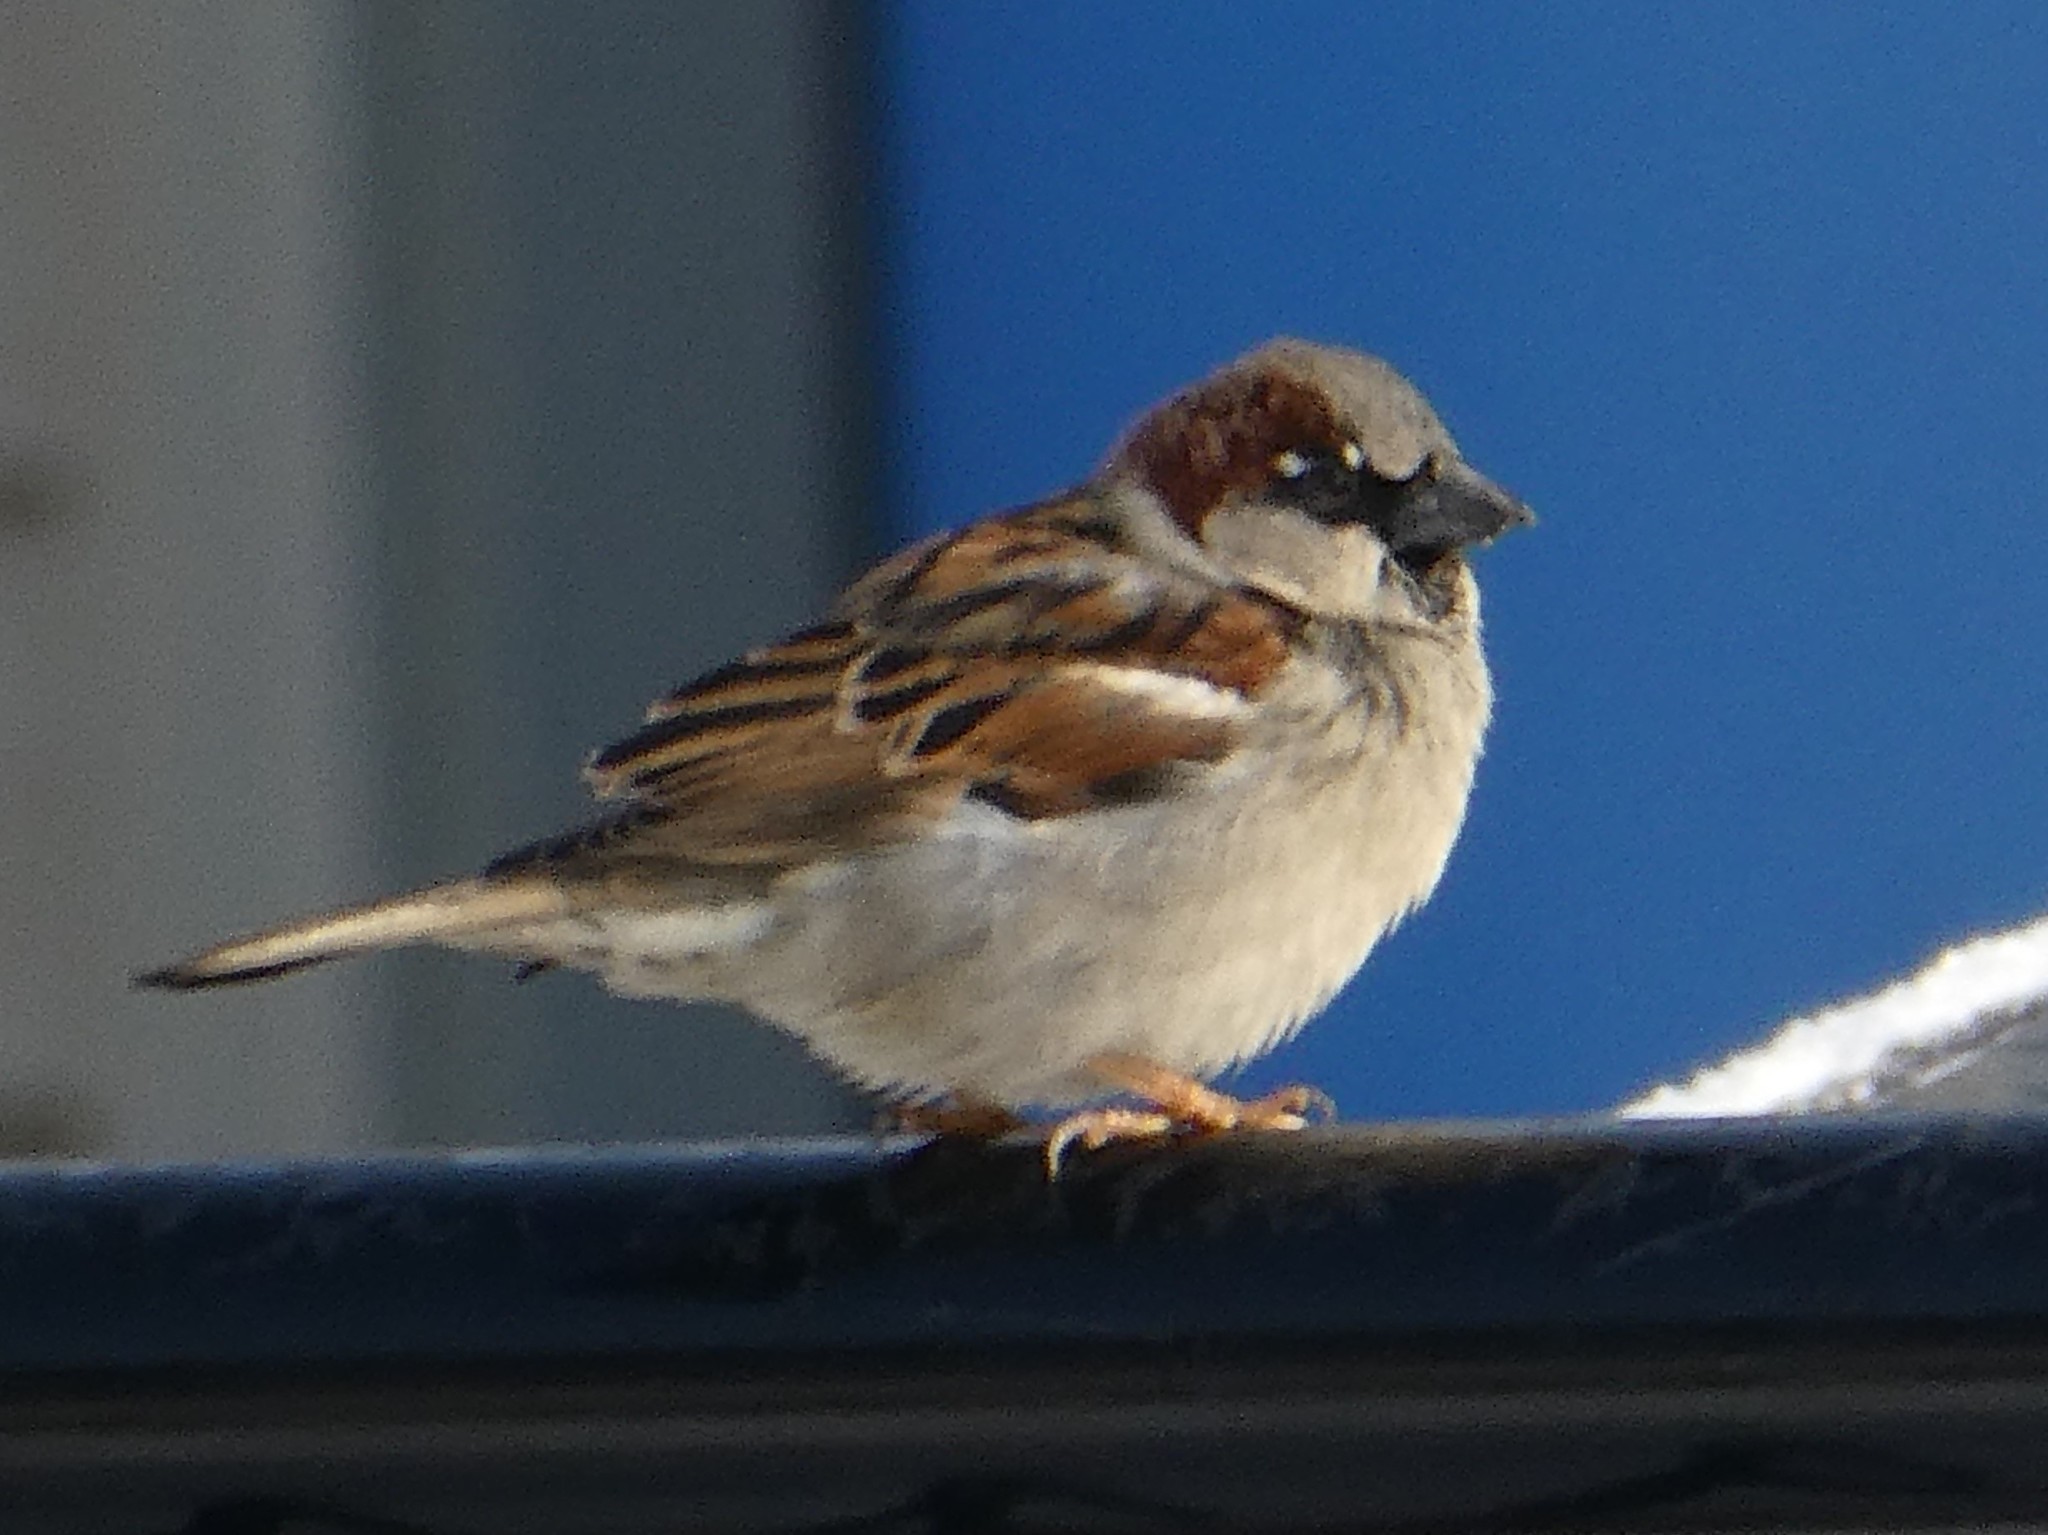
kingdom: Animalia
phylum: Chordata
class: Aves
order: Passeriformes
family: Passeridae
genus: Passer
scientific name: Passer domesticus
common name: House sparrow
